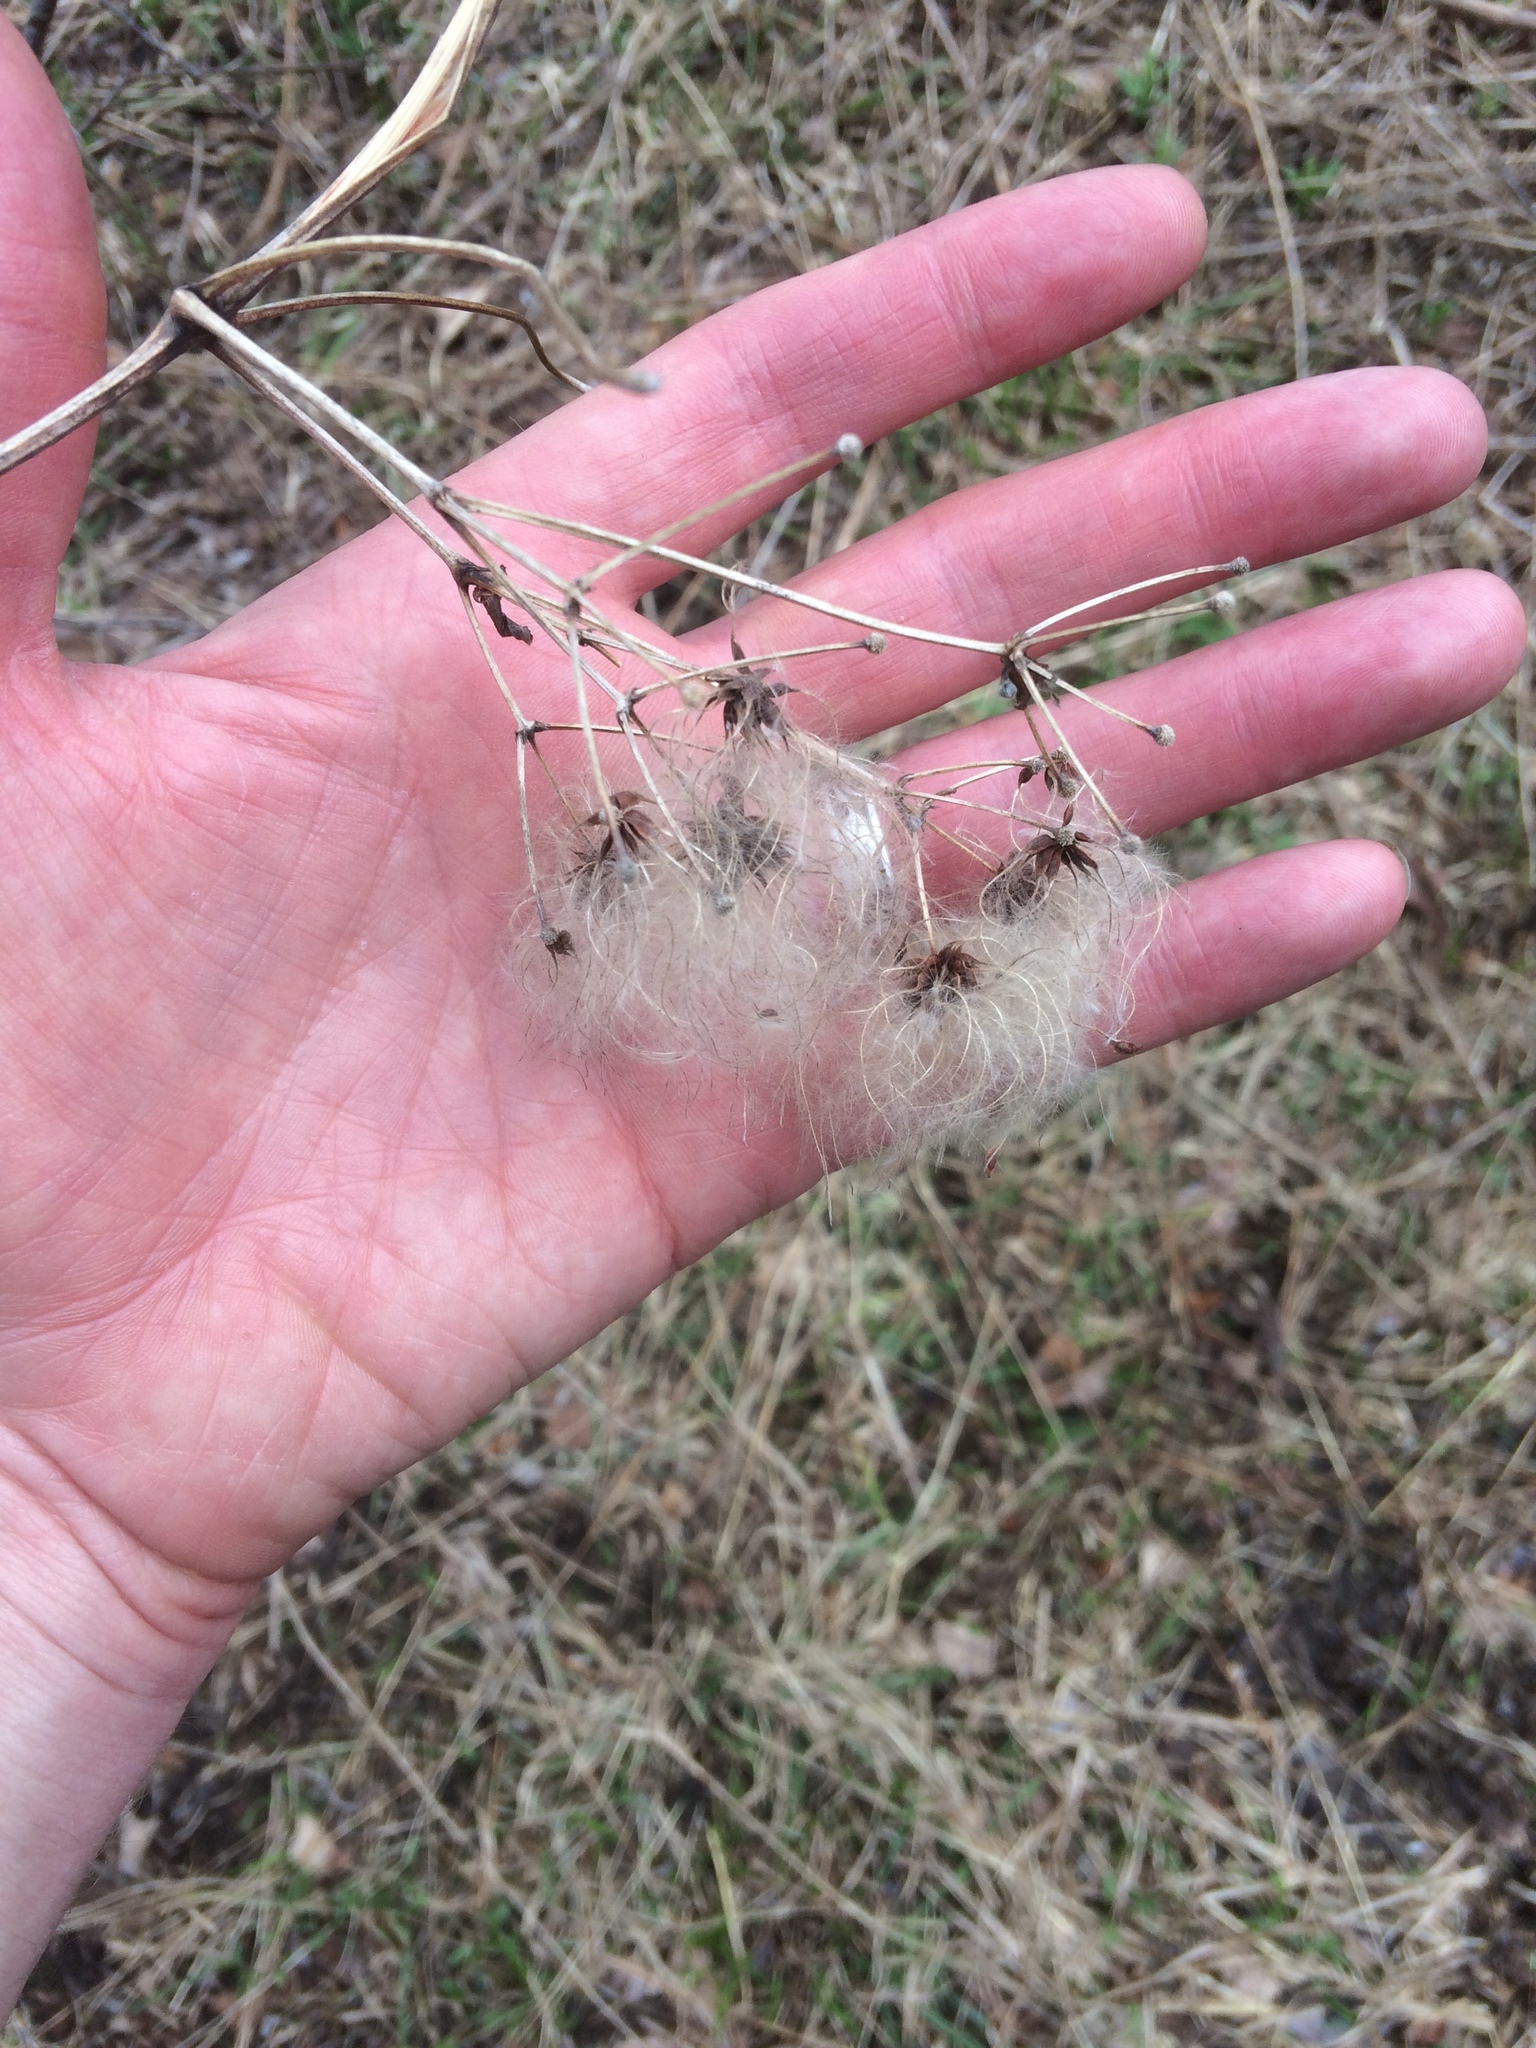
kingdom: Plantae
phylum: Tracheophyta
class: Magnoliopsida
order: Ranunculales
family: Ranunculaceae
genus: Clematis
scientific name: Clematis virginiana
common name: Virgin's-bower
